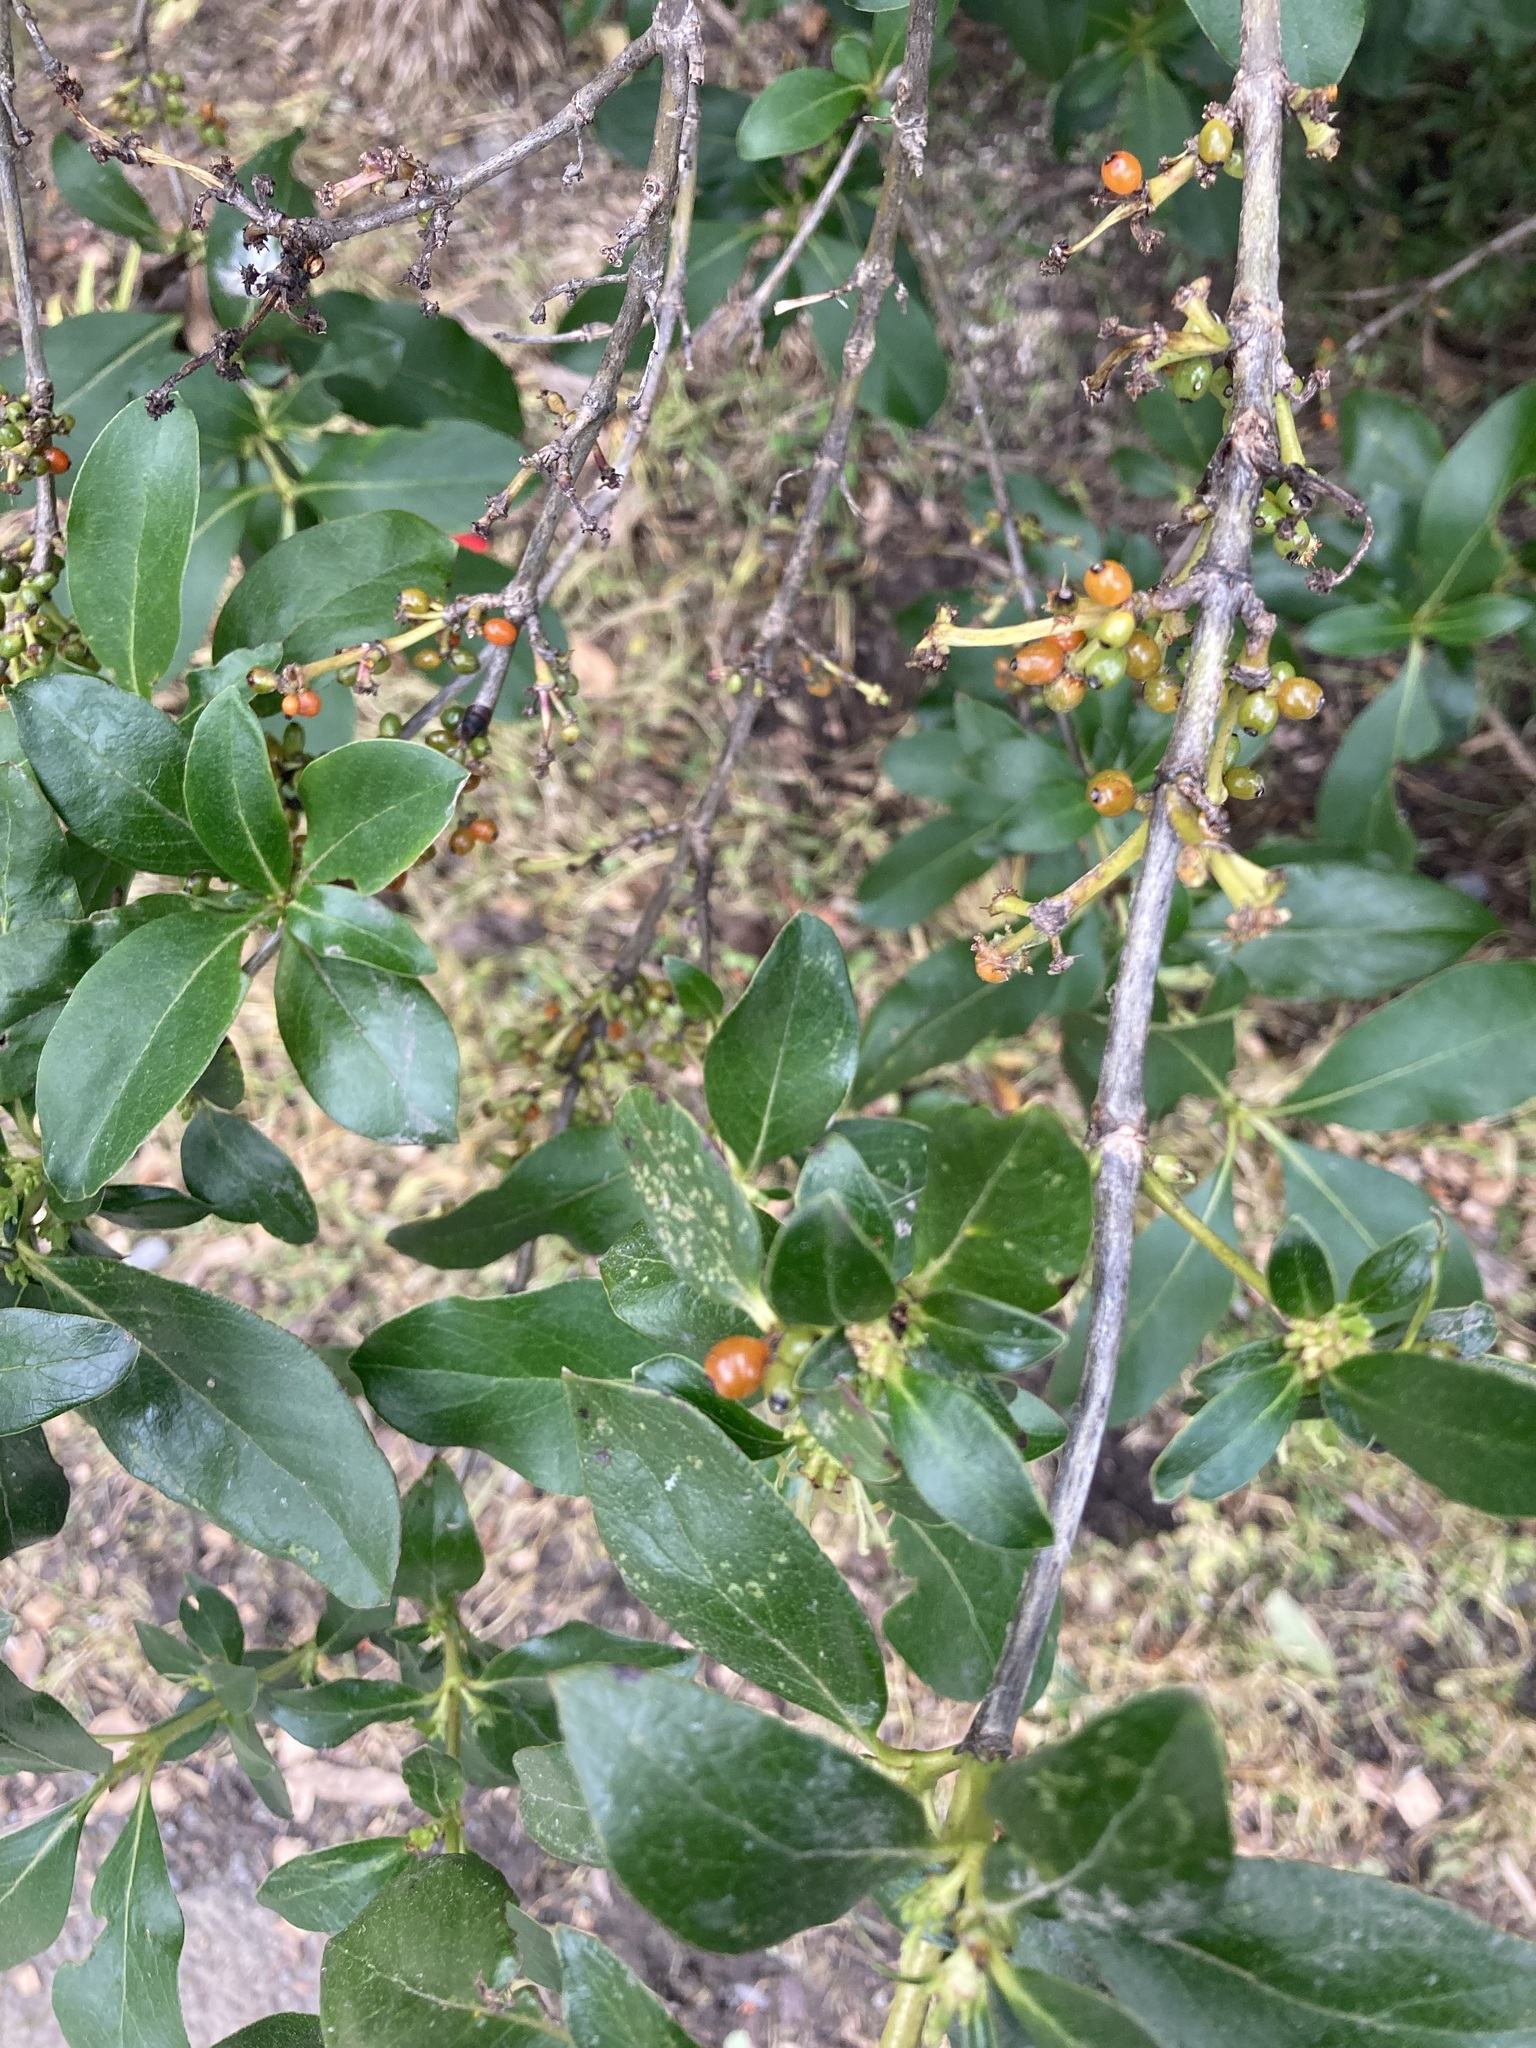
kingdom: Plantae
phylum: Tracheophyta
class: Magnoliopsida
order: Gentianales
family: Rubiaceae
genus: Coprosma
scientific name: Coprosma robusta
